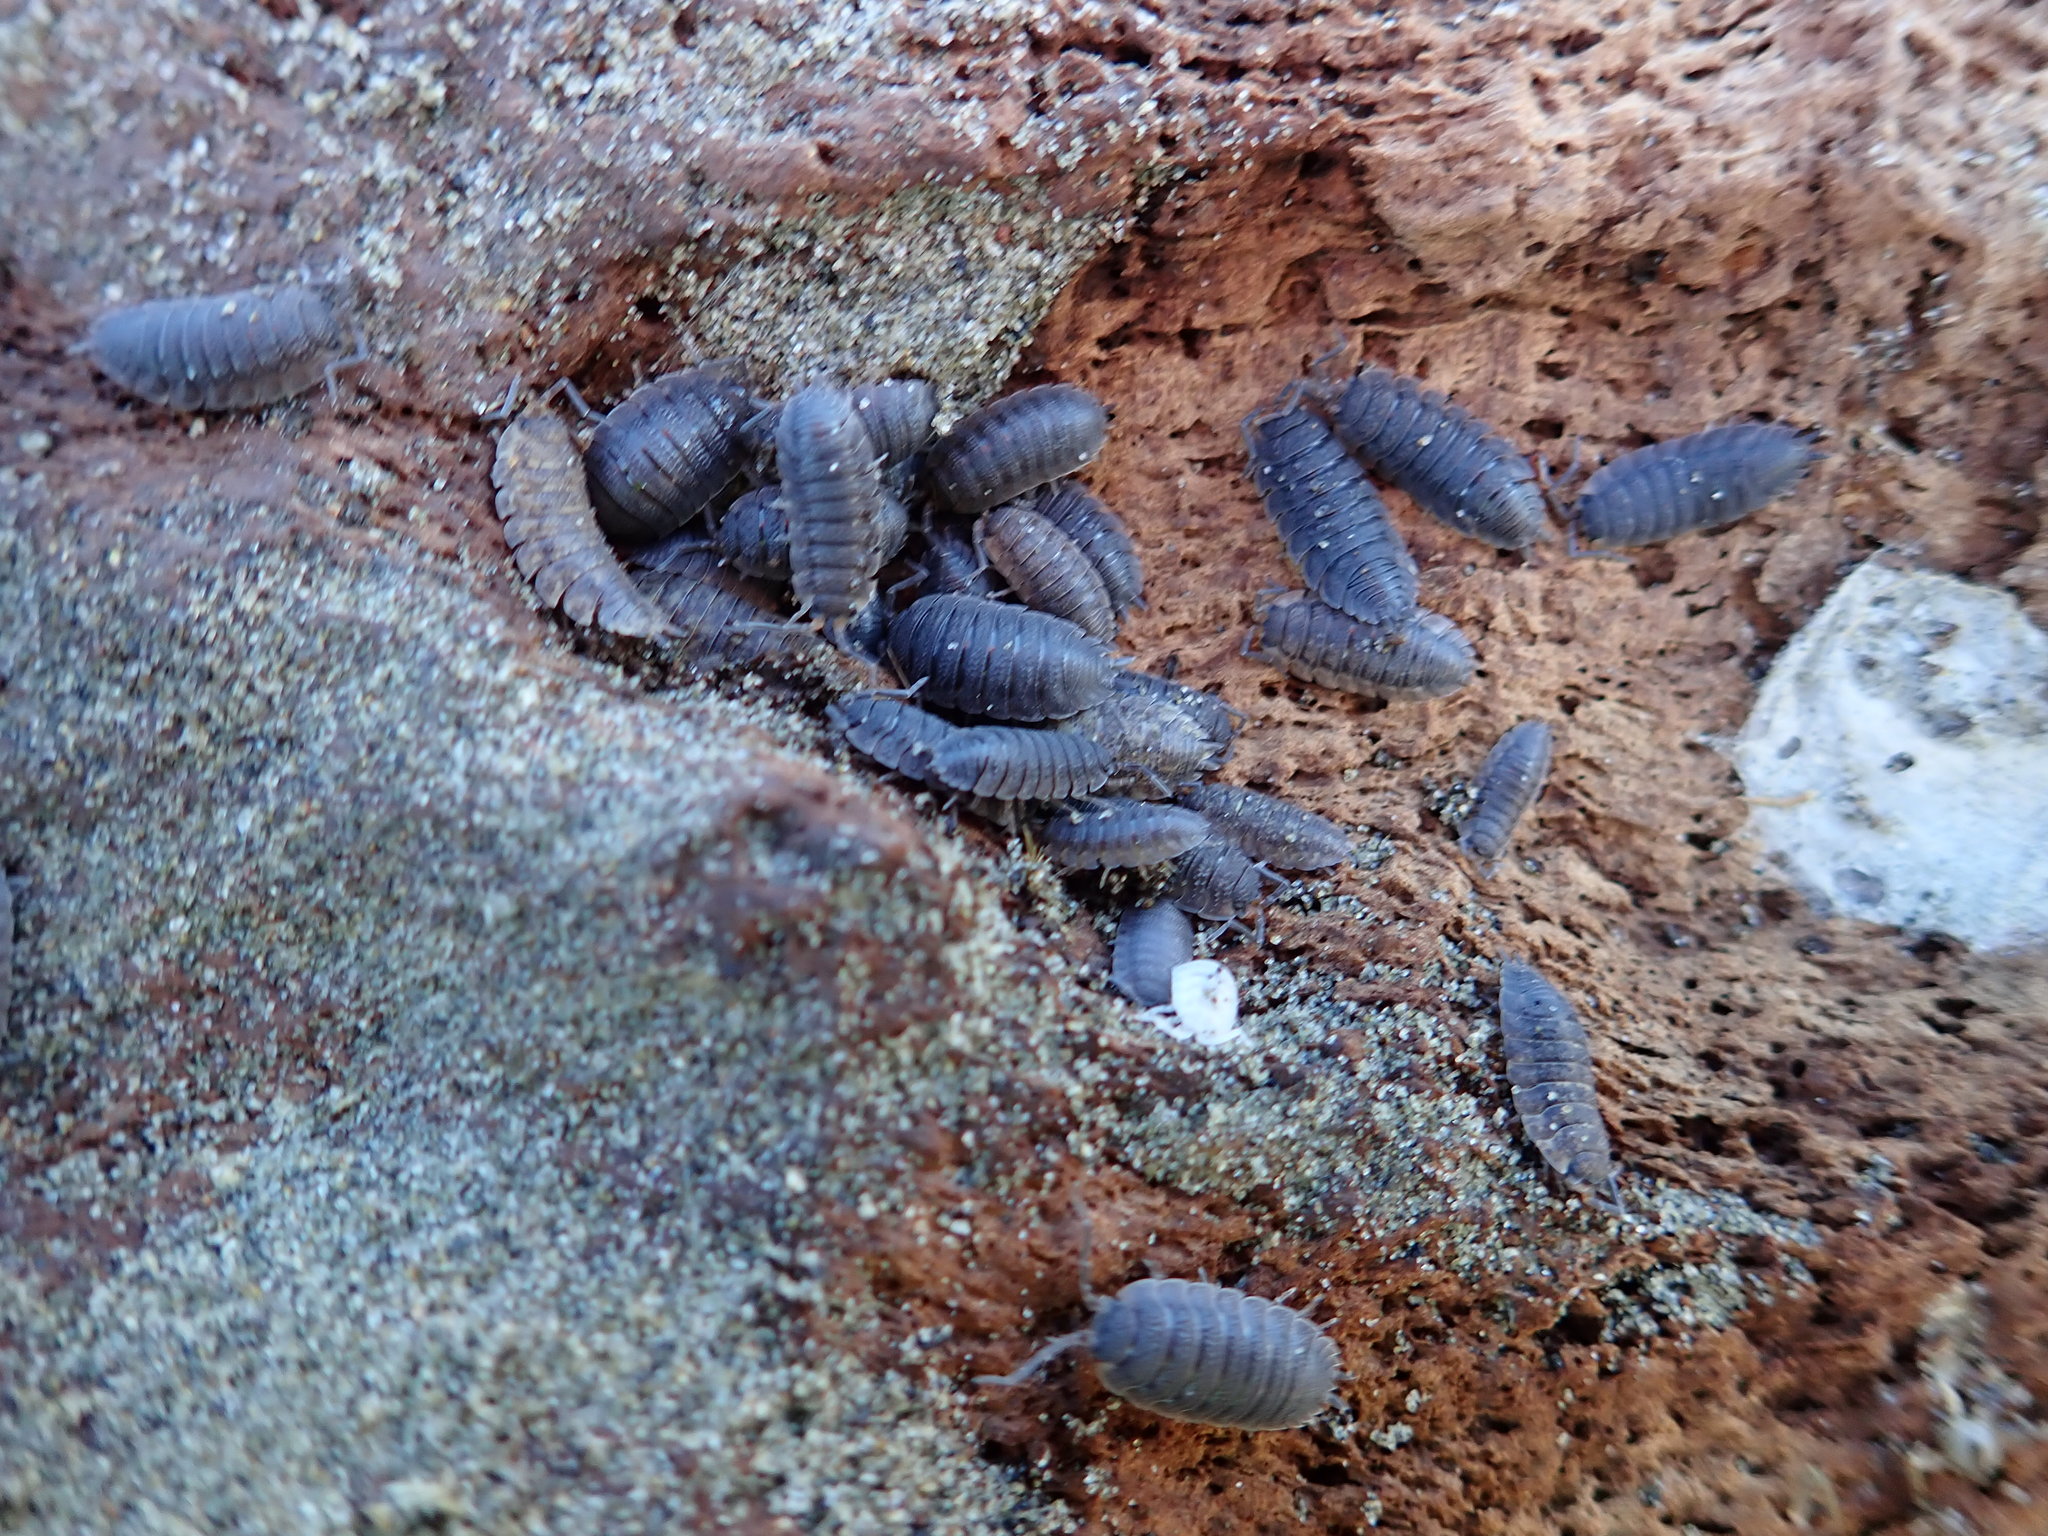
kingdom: Animalia
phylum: Arthropoda
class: Malacostraca
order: Isopoda
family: Porcellionidae
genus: Porcellio
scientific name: Porcellio scaber
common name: Common rough woodlouse
